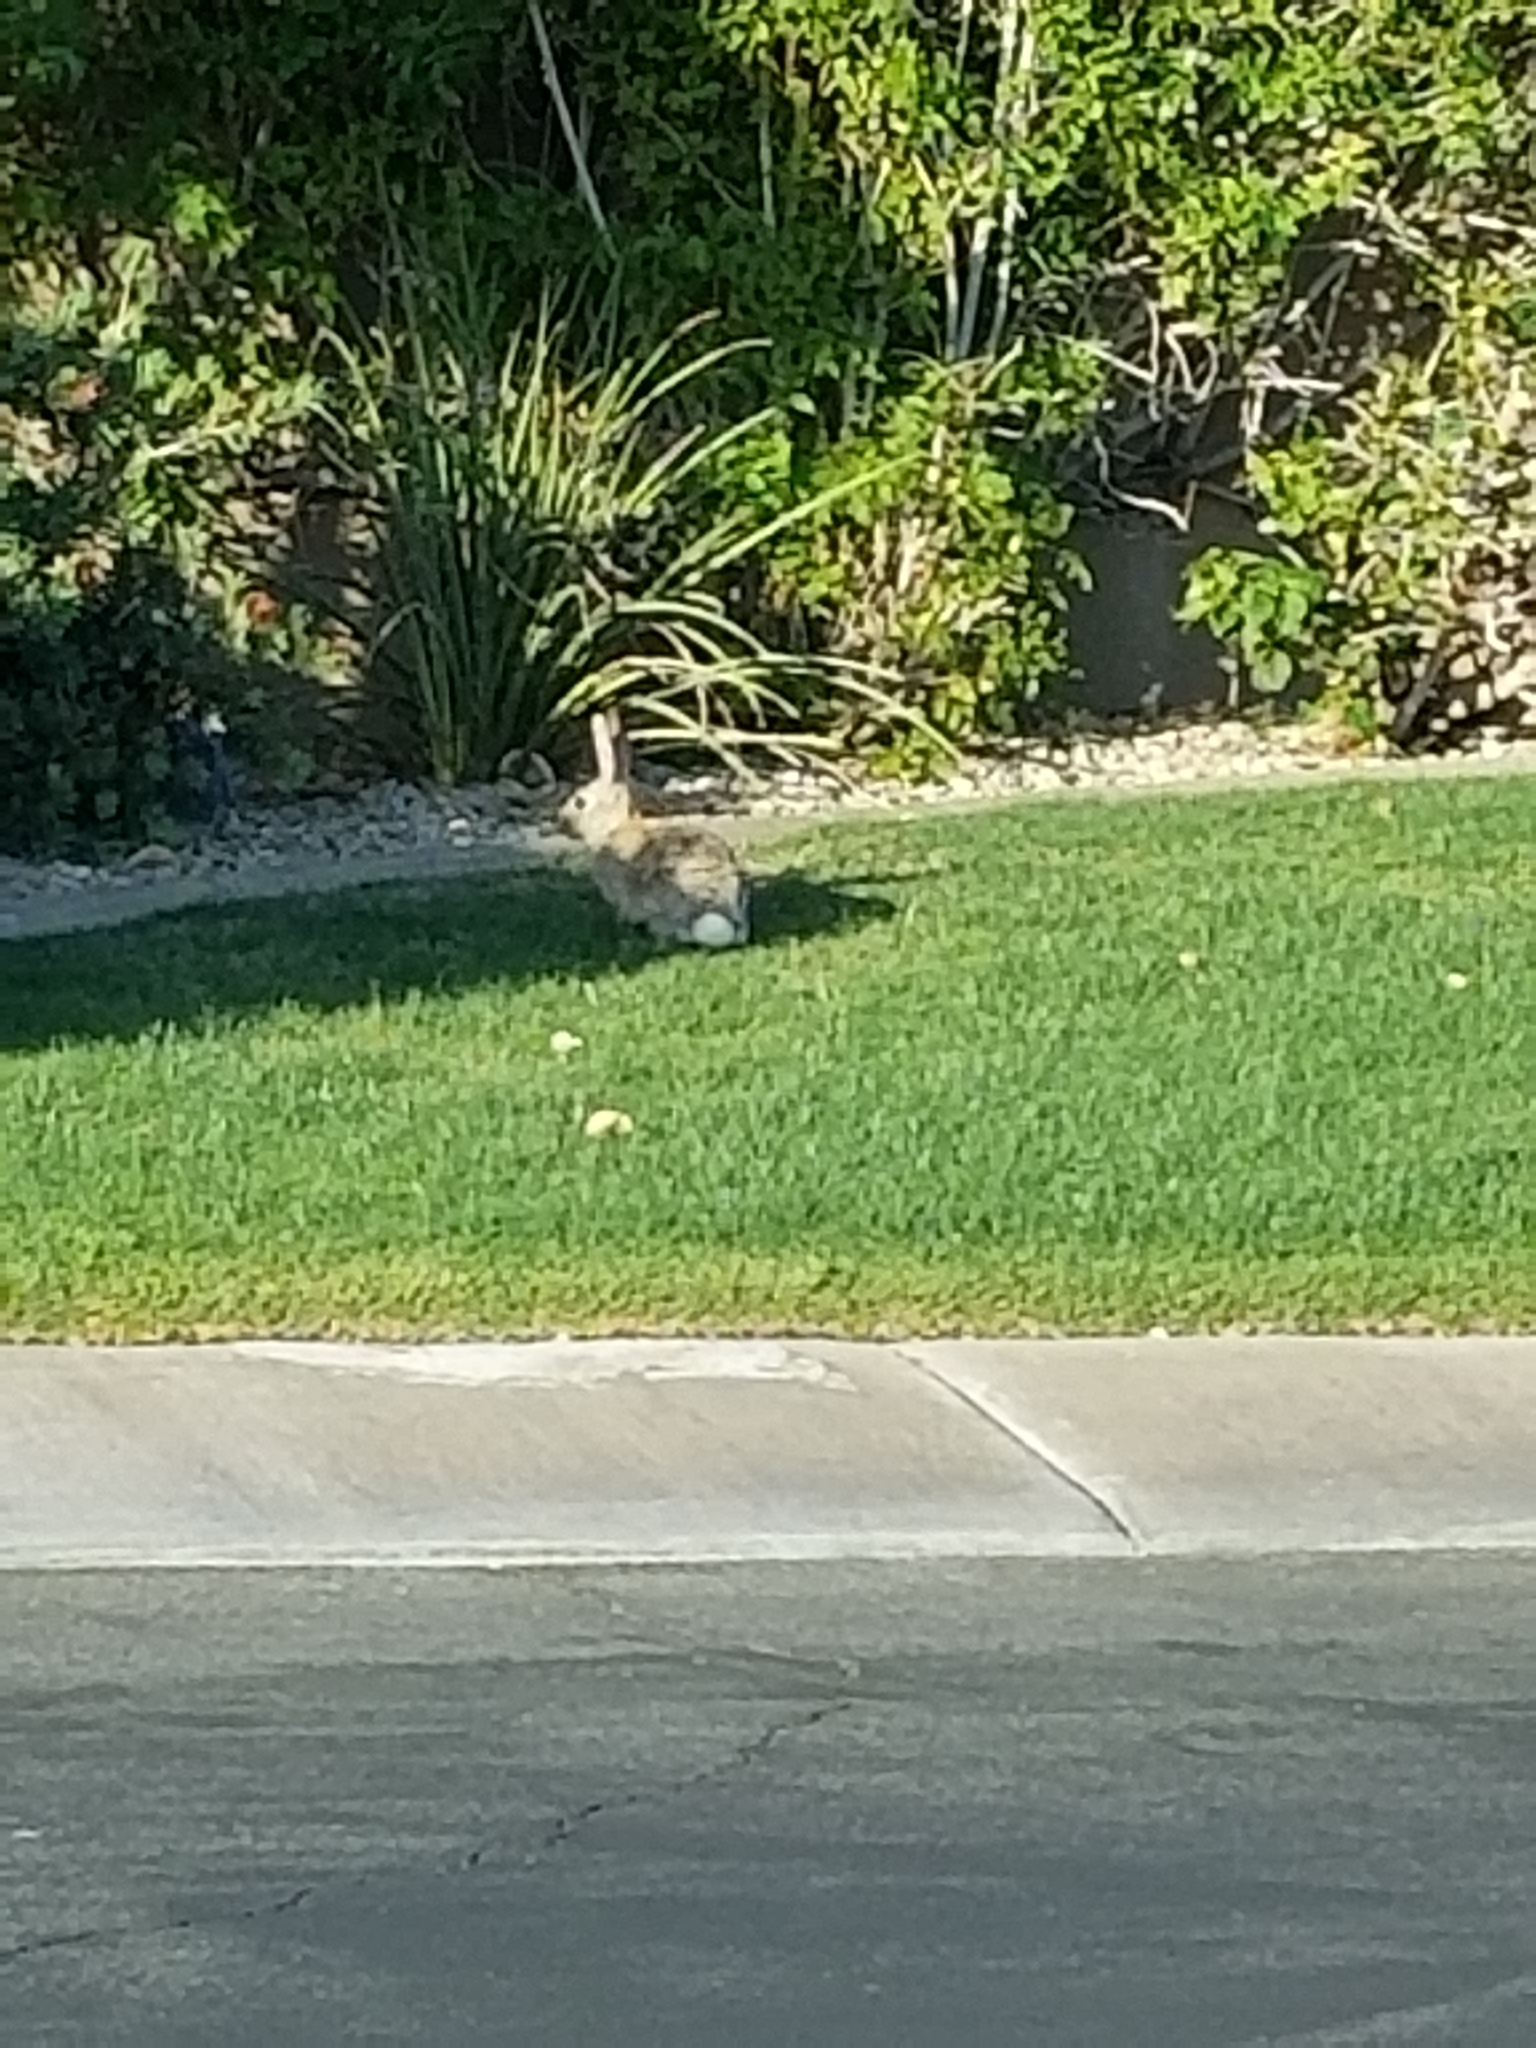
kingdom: Animalia
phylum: Chordata
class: Mammalia
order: Lagomorpha
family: Leporidae
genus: Sylvilagus
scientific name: Sylvilagus audubonii
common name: Desert cottontail
